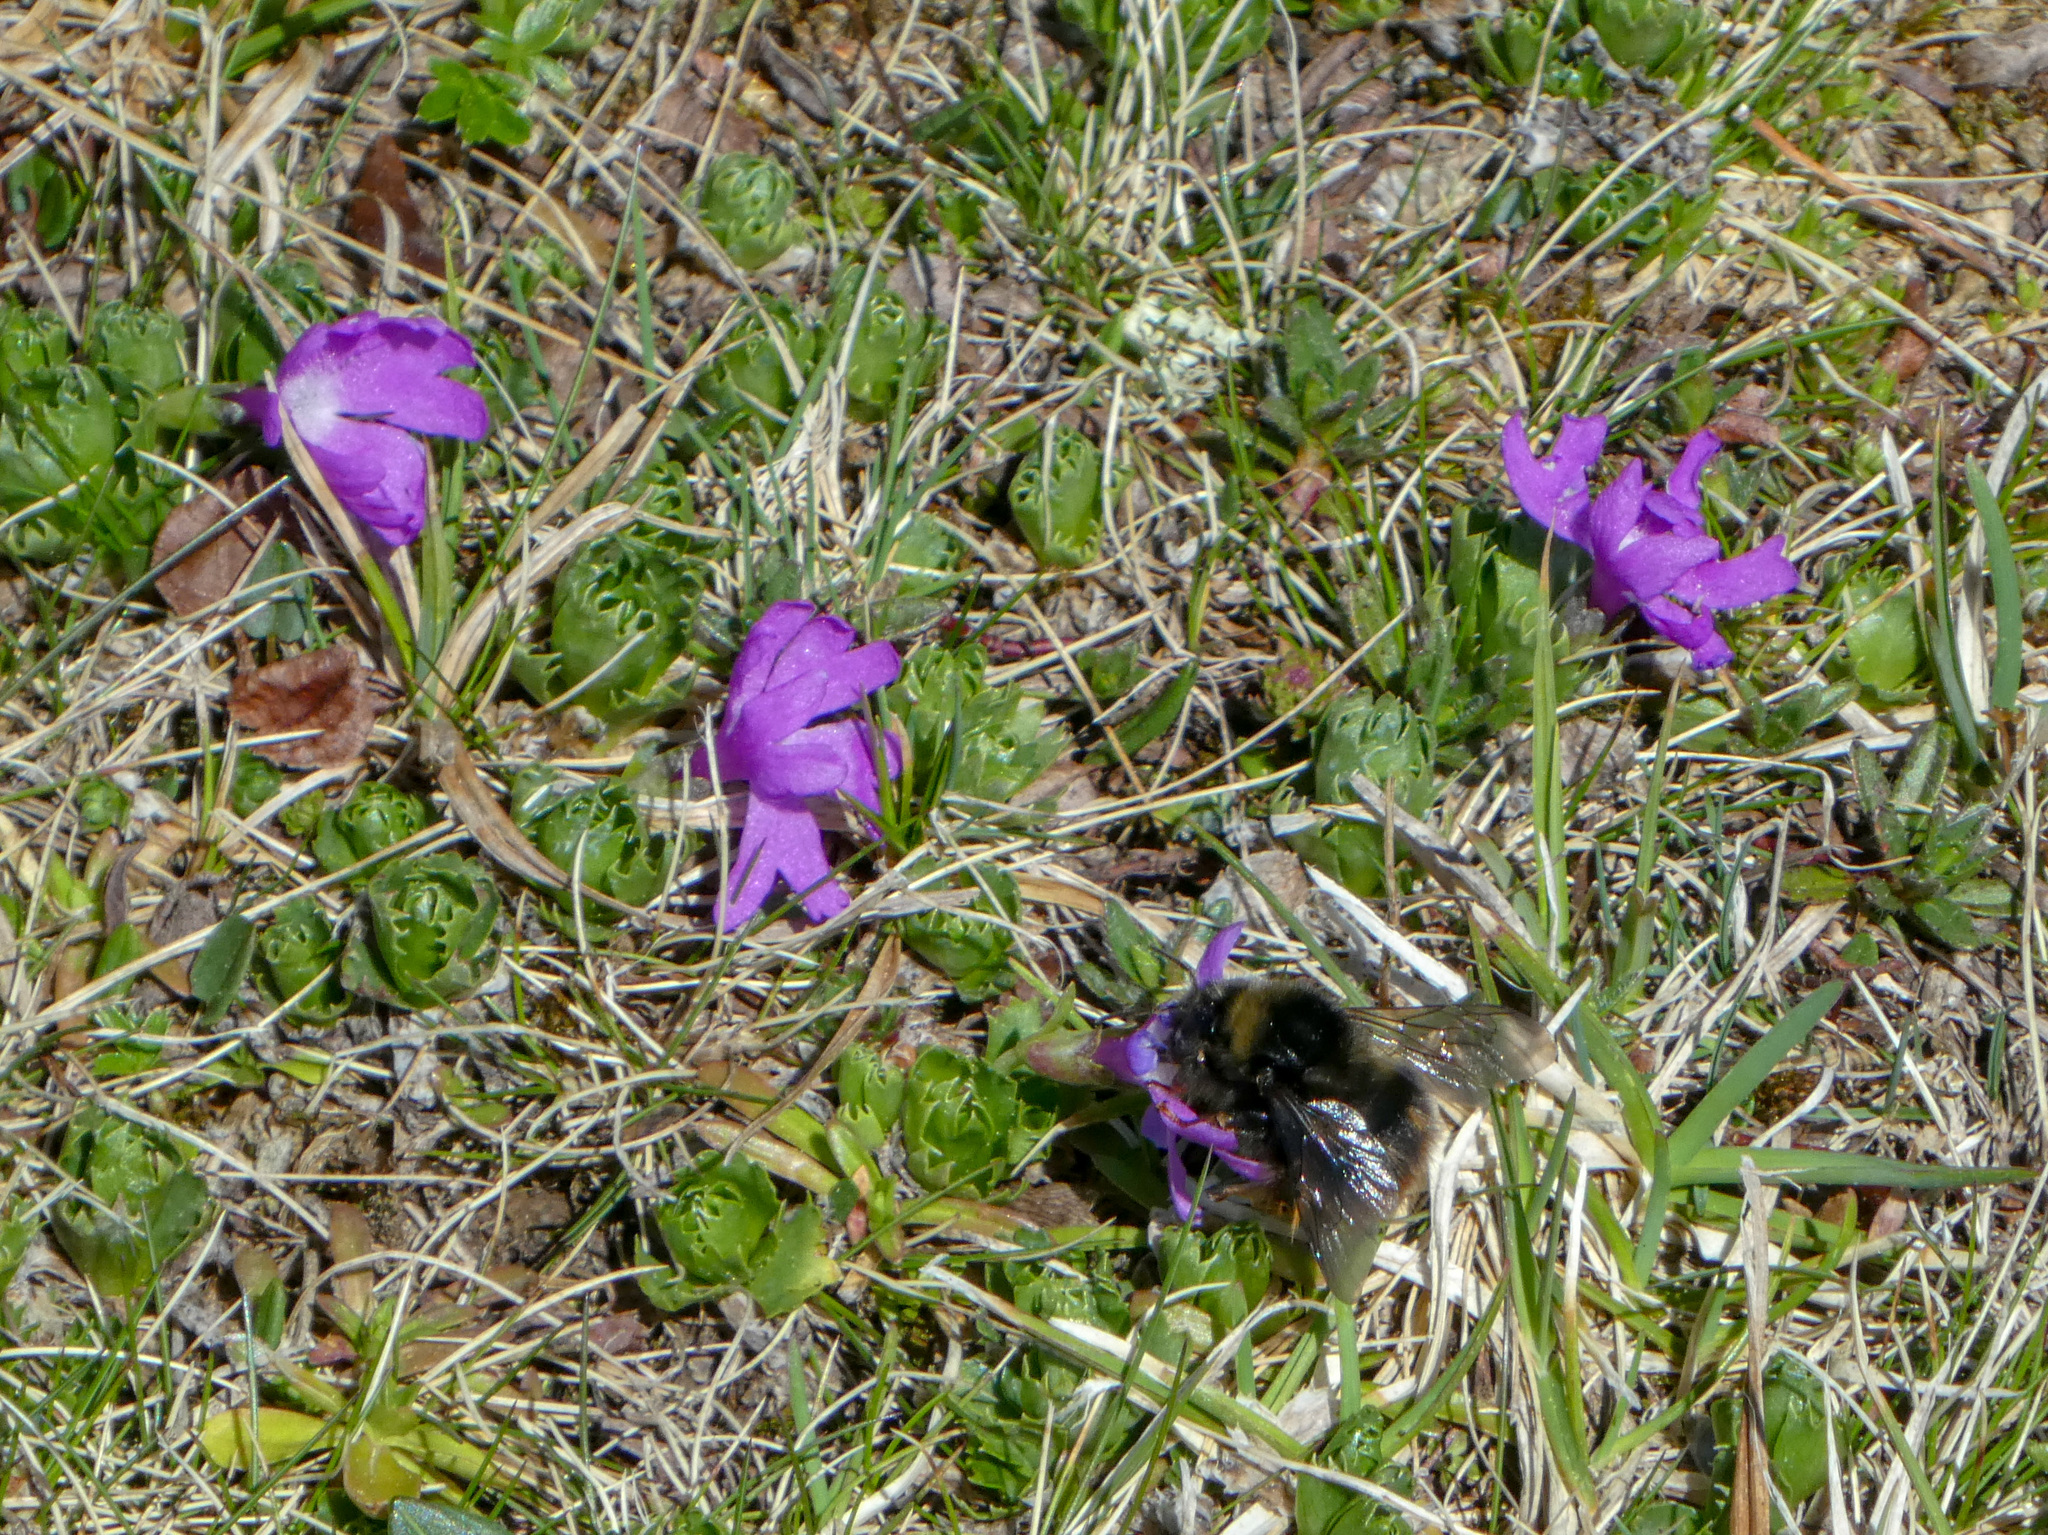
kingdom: Animalia
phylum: Arthropoda
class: Insecta
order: Hymenoptera
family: Apidae
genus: Bombus
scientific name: Bombus pratorum
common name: Early humble-bee
